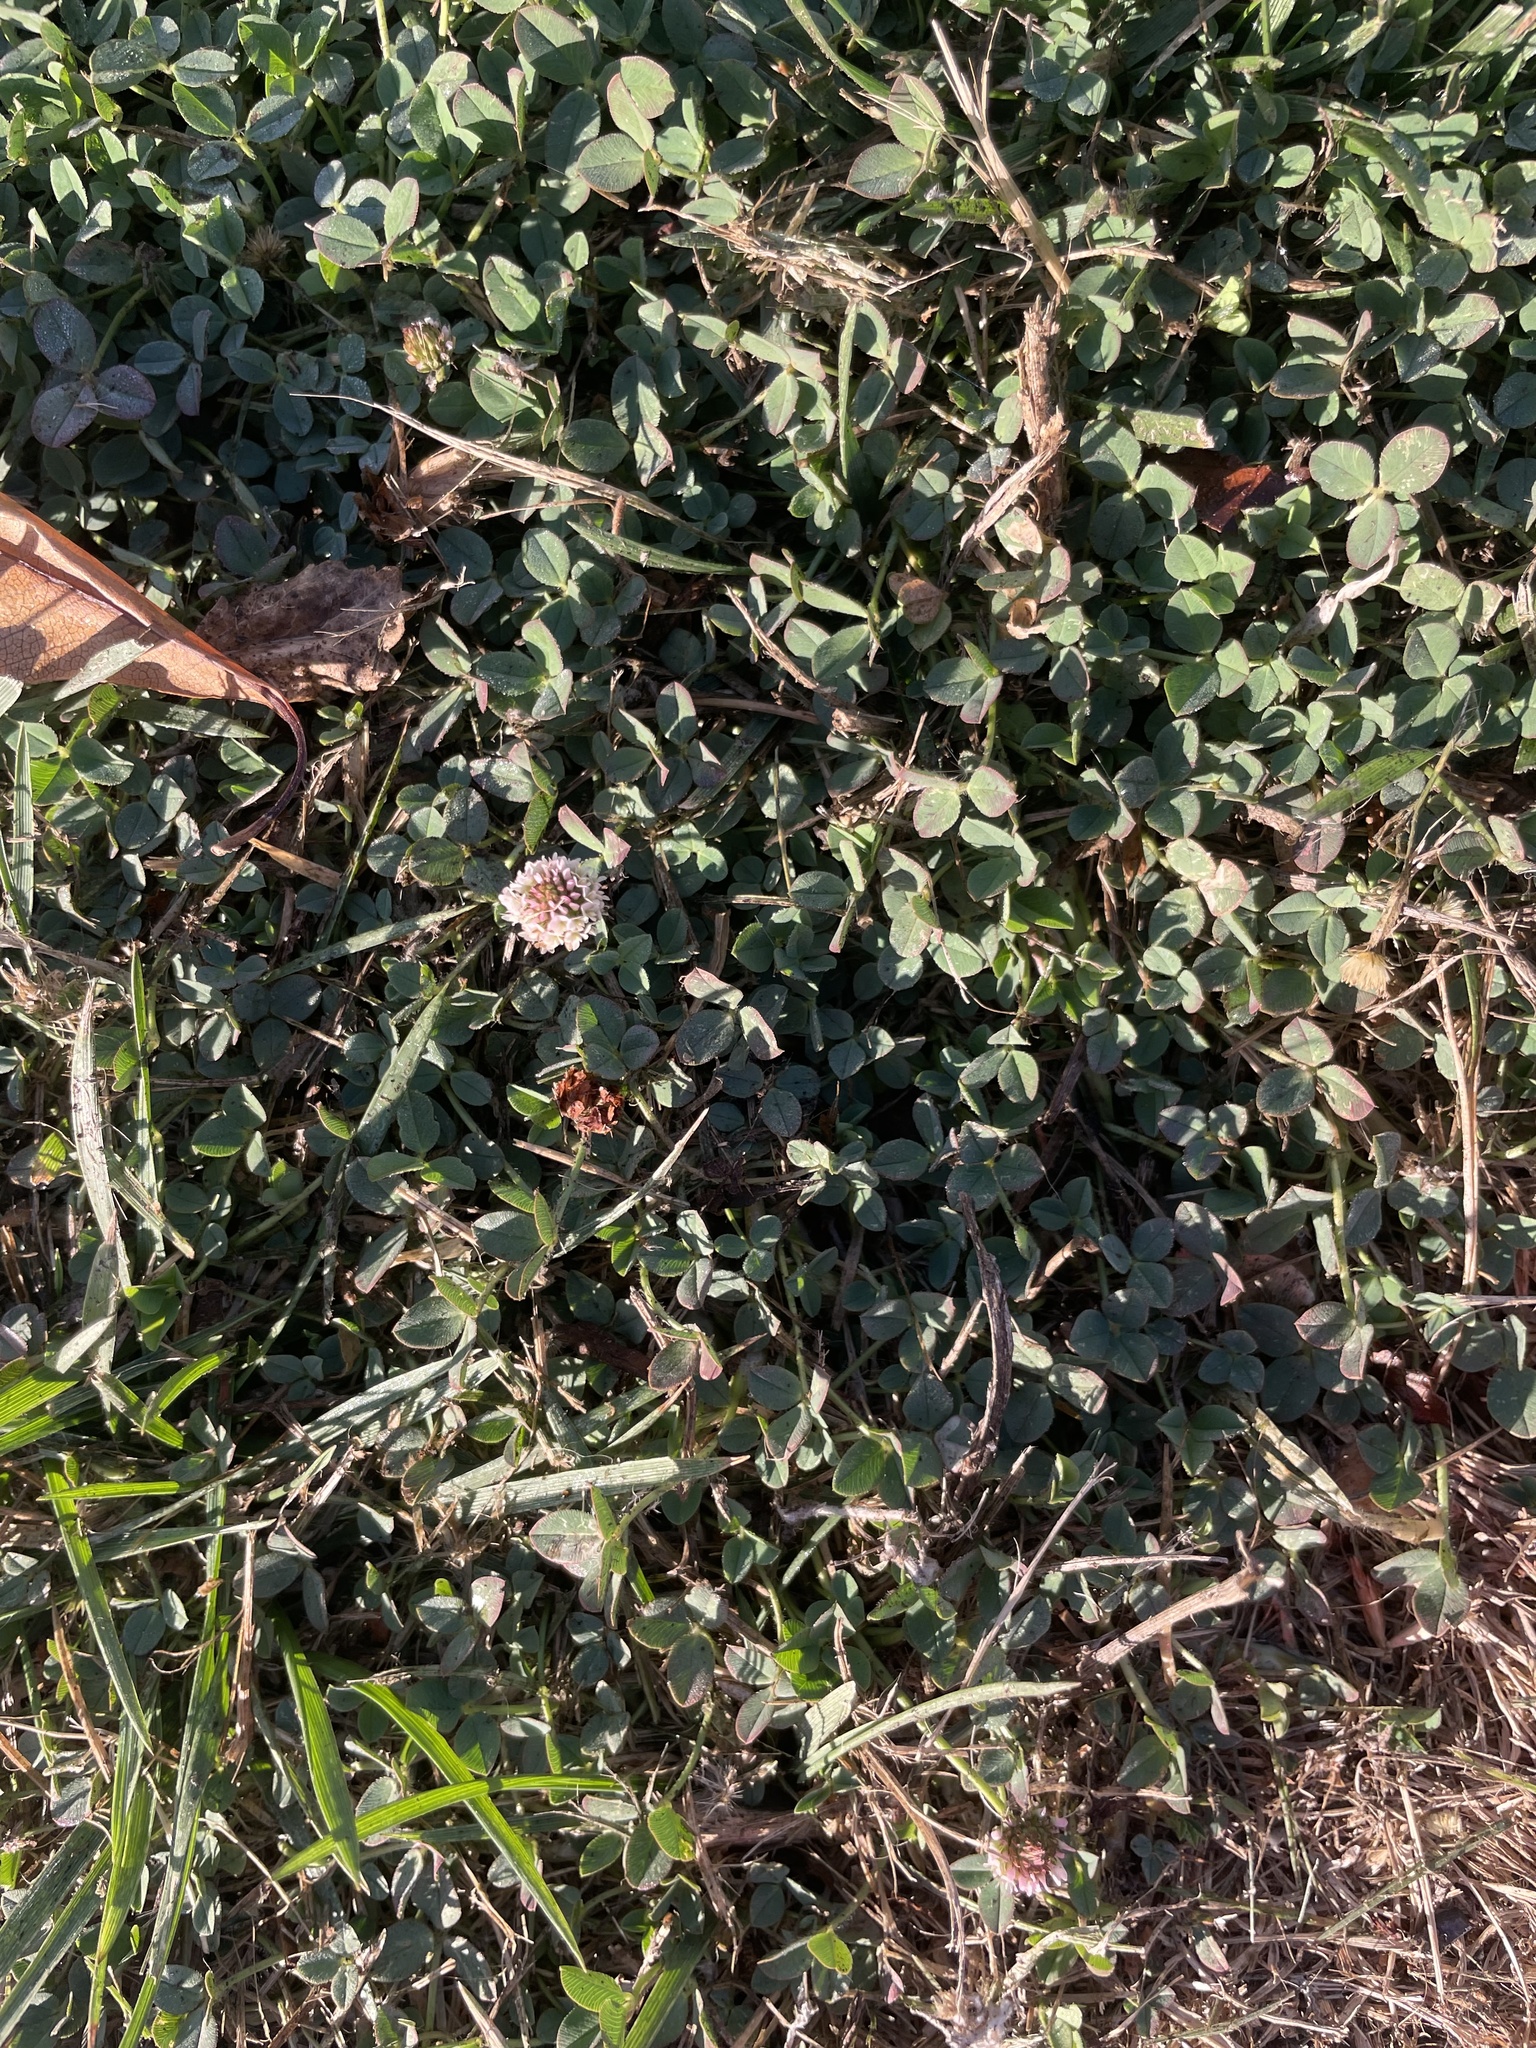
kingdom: Plantae
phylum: Tracheophyta
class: Magnoliopsida
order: Fabales
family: Fabaceae
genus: Trifolium
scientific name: Trifolium fragiferum
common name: Strawberry clover
